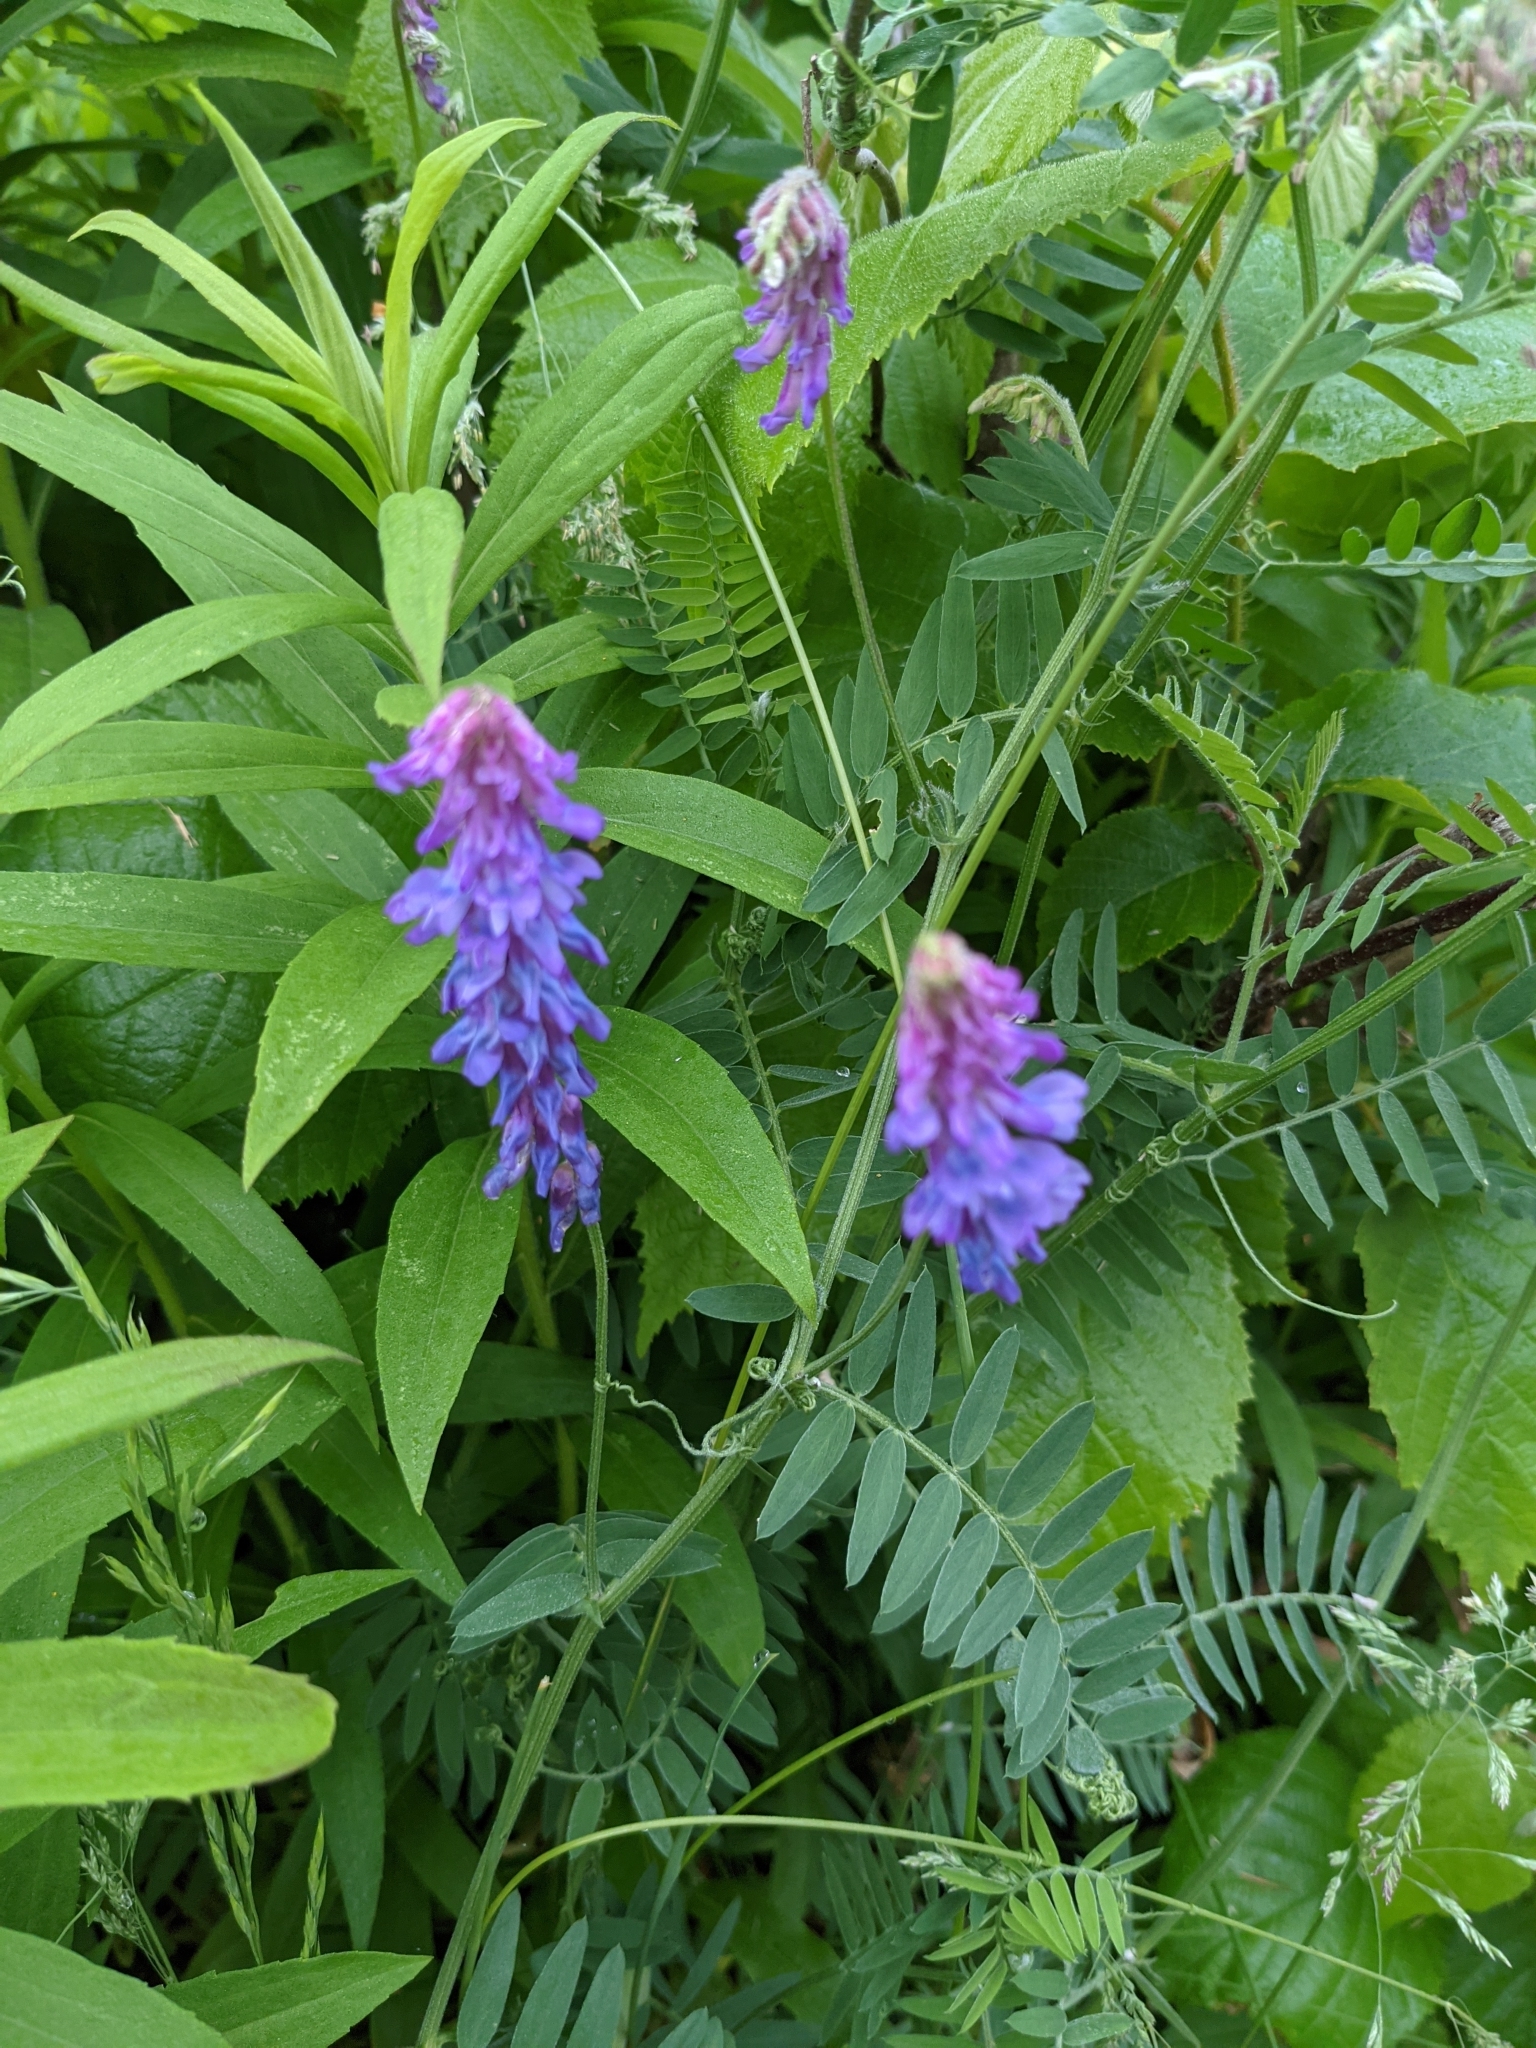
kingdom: Plantae
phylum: Tracheophyta
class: Magnoliopsida
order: Fabales
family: Fabaceae
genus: Vicia
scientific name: Vicia cracca
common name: Bird vetch
